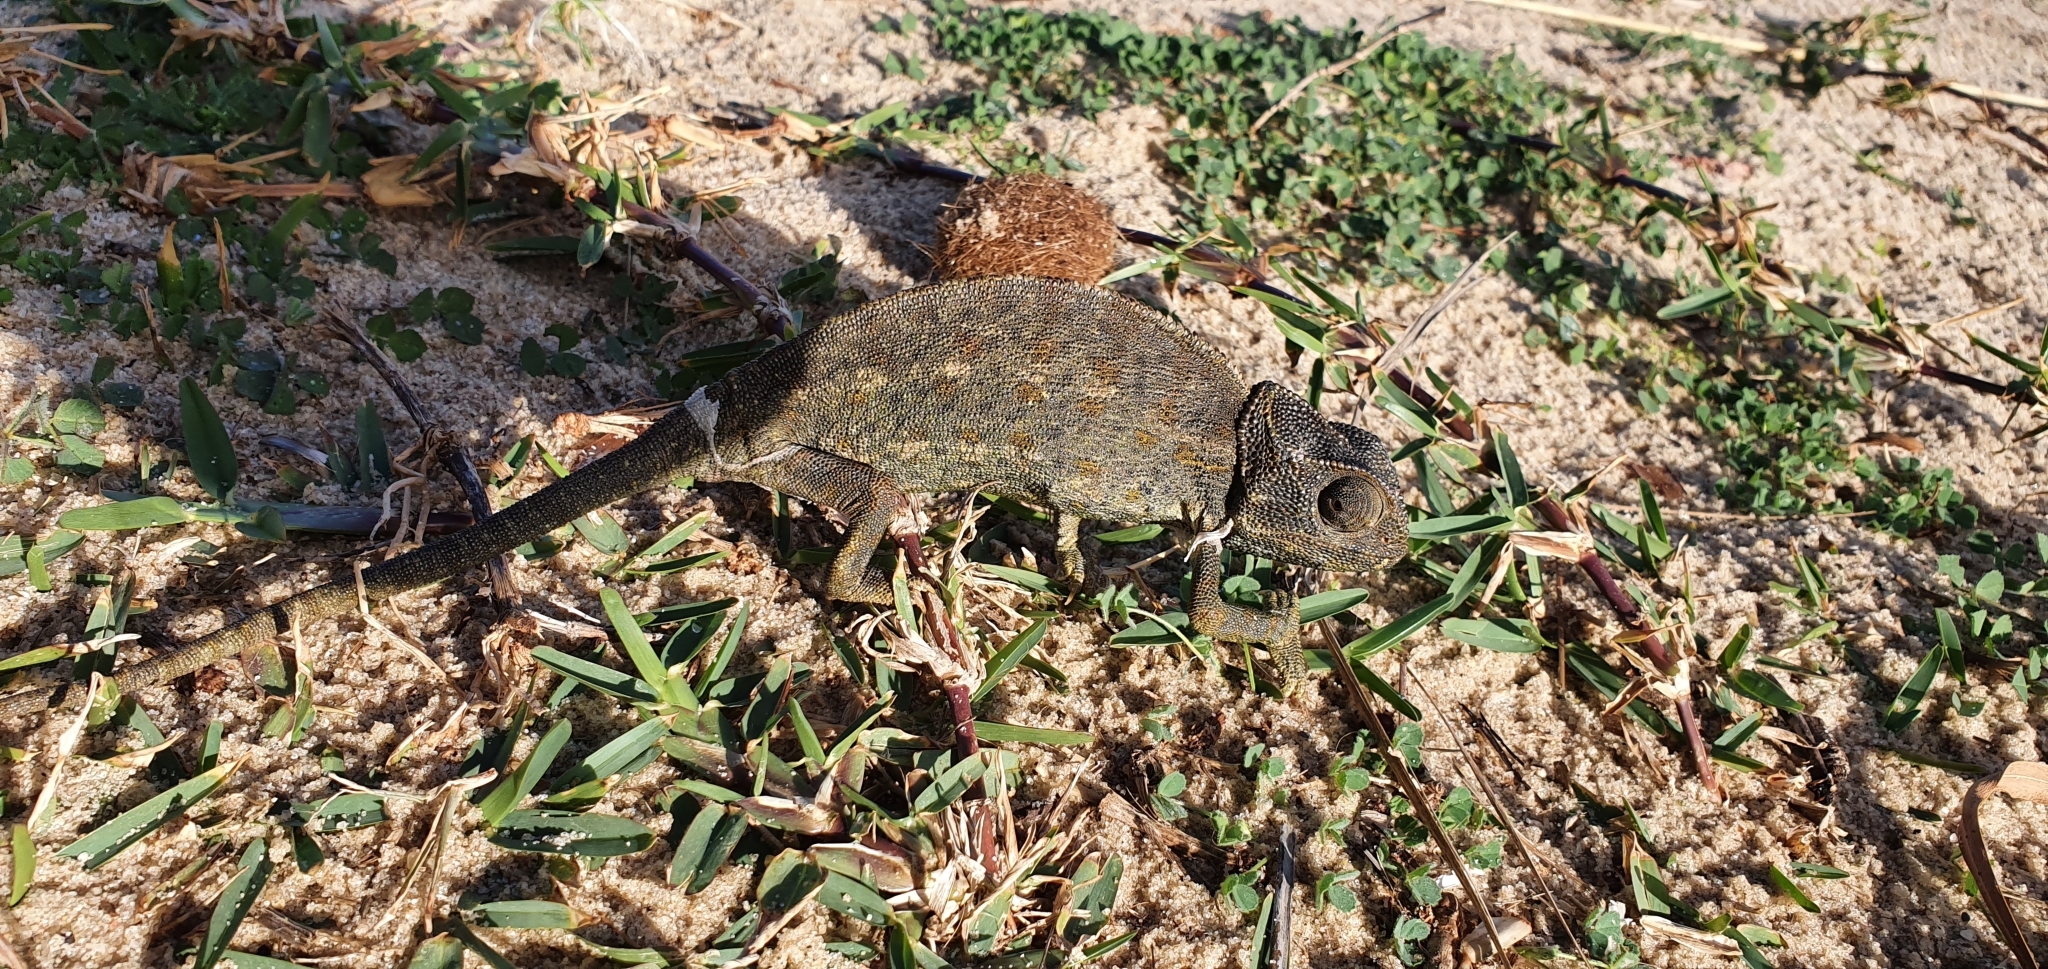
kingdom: Animalia
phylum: Chordata
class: Squamata
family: Chamaeleonidae
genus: Chamaeleo
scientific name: Chamaeleo chamaeleon
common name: Mediterranean chameleon
